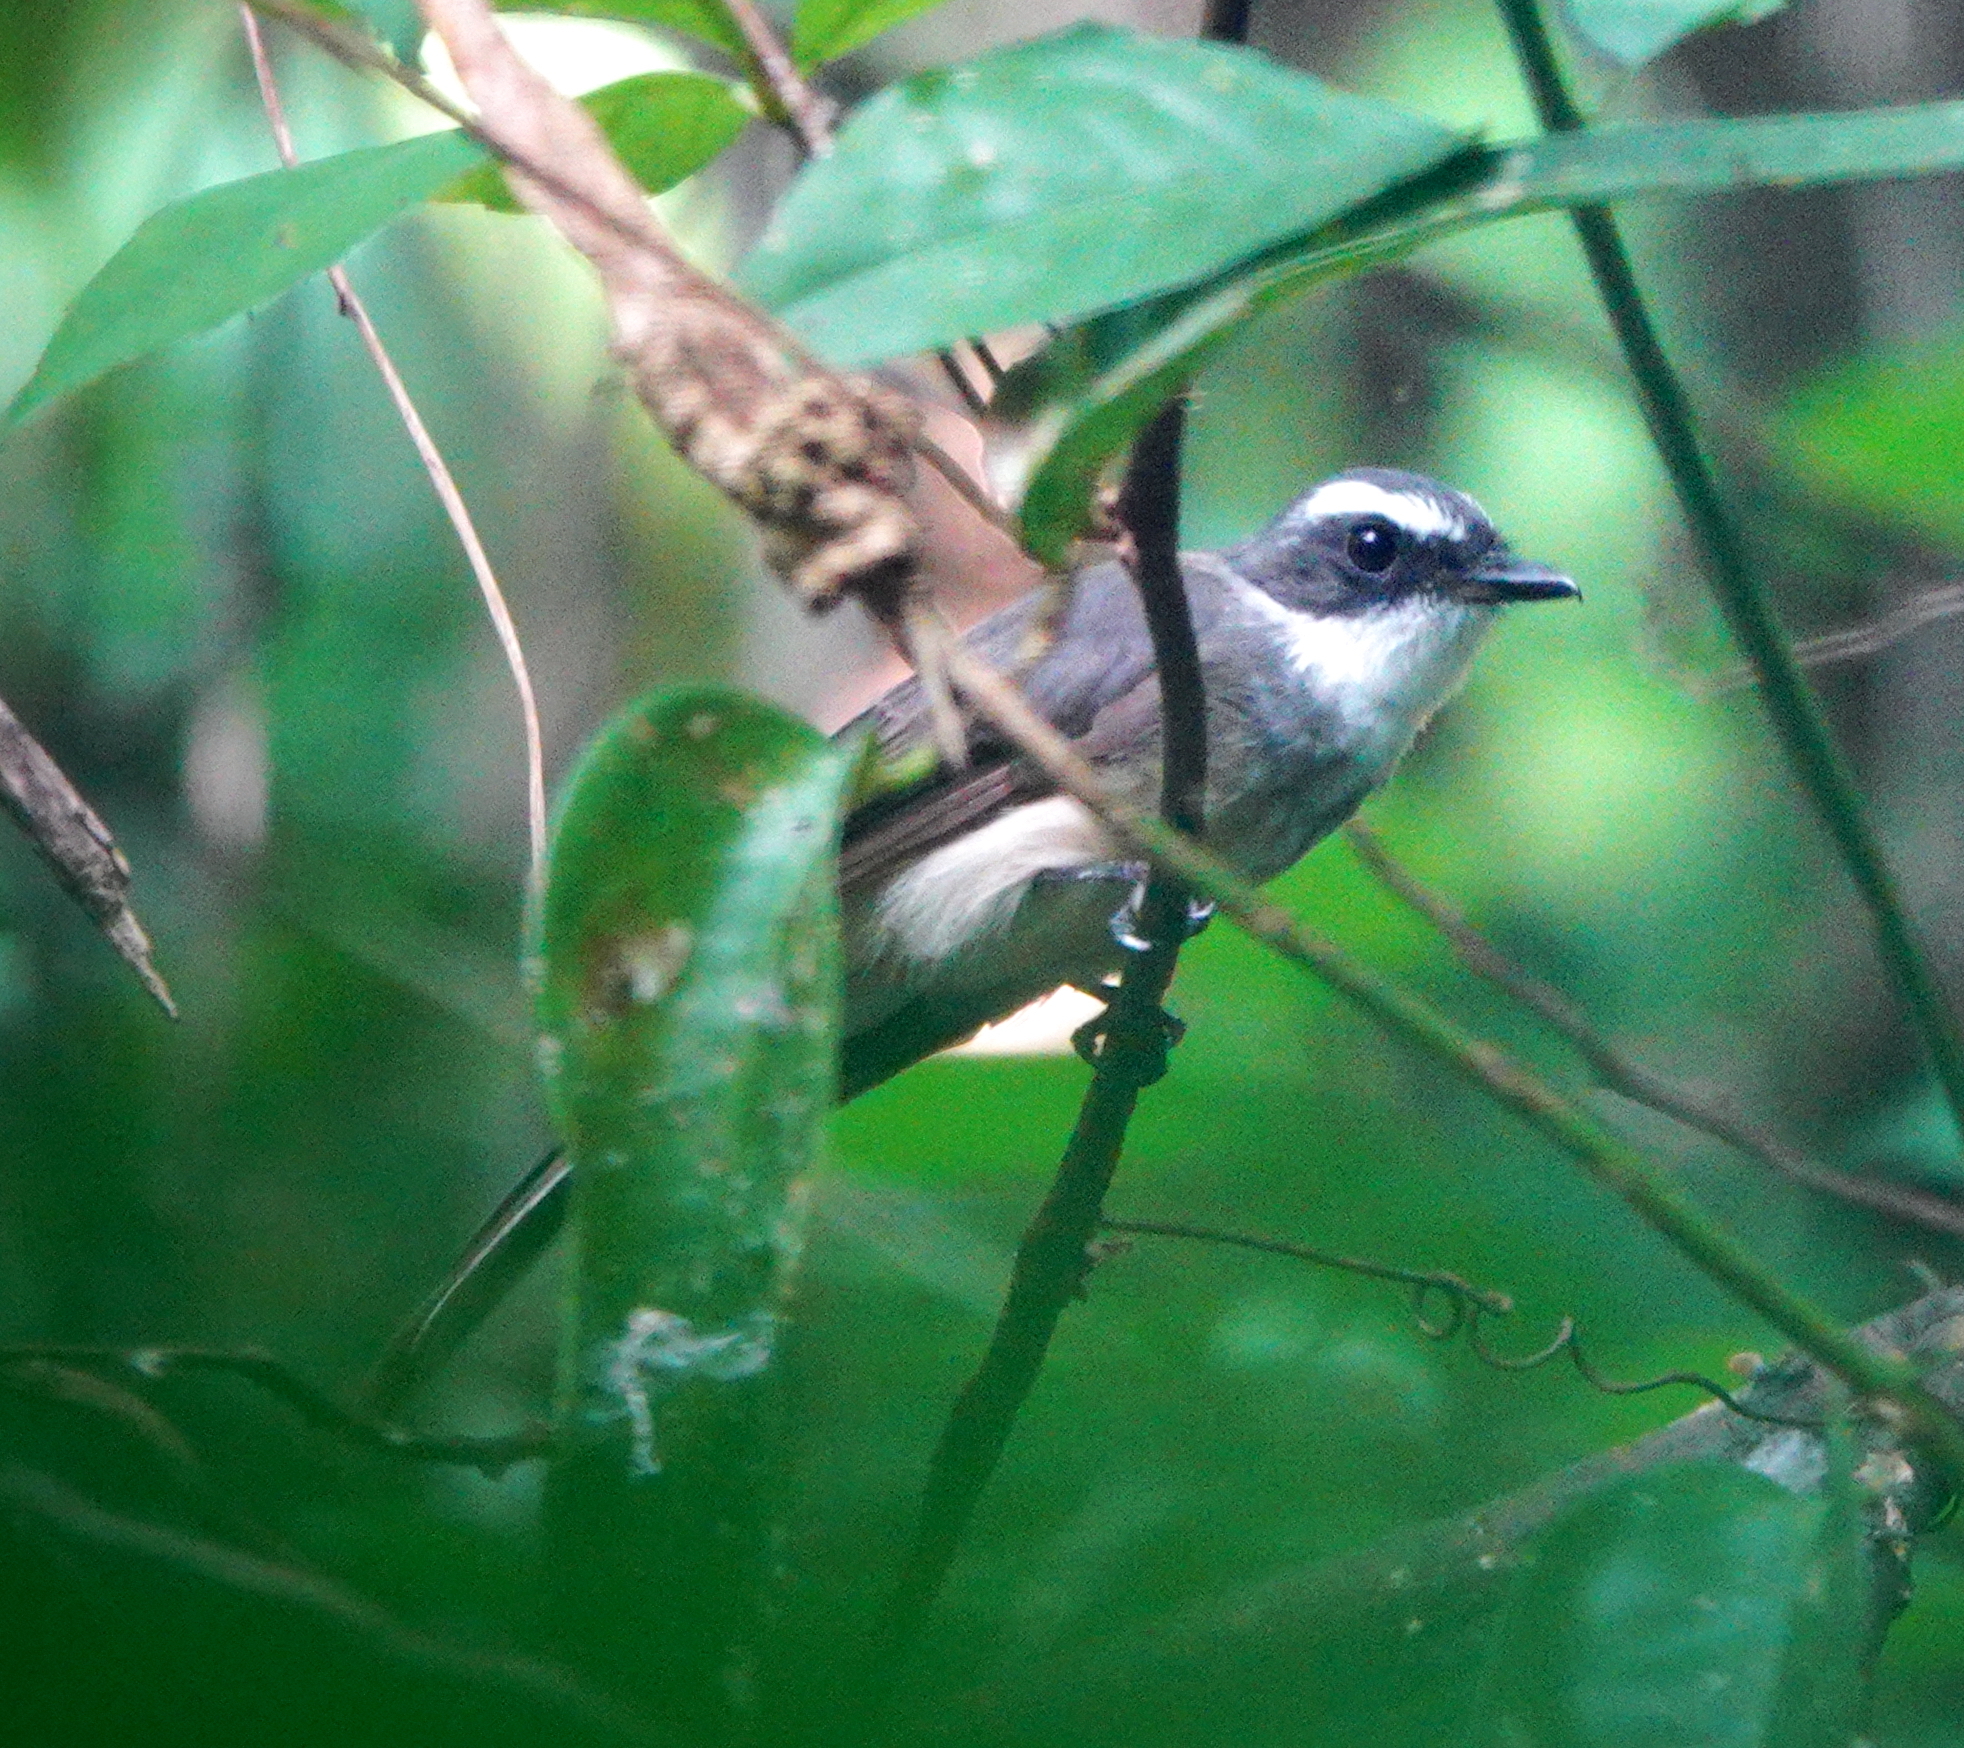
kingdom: Animalia
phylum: Chordata
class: Aves
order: Passeriformes
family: Rhipiduridae
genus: Rhipidura
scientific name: Rhipidura rufiventris
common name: Northern fantail
